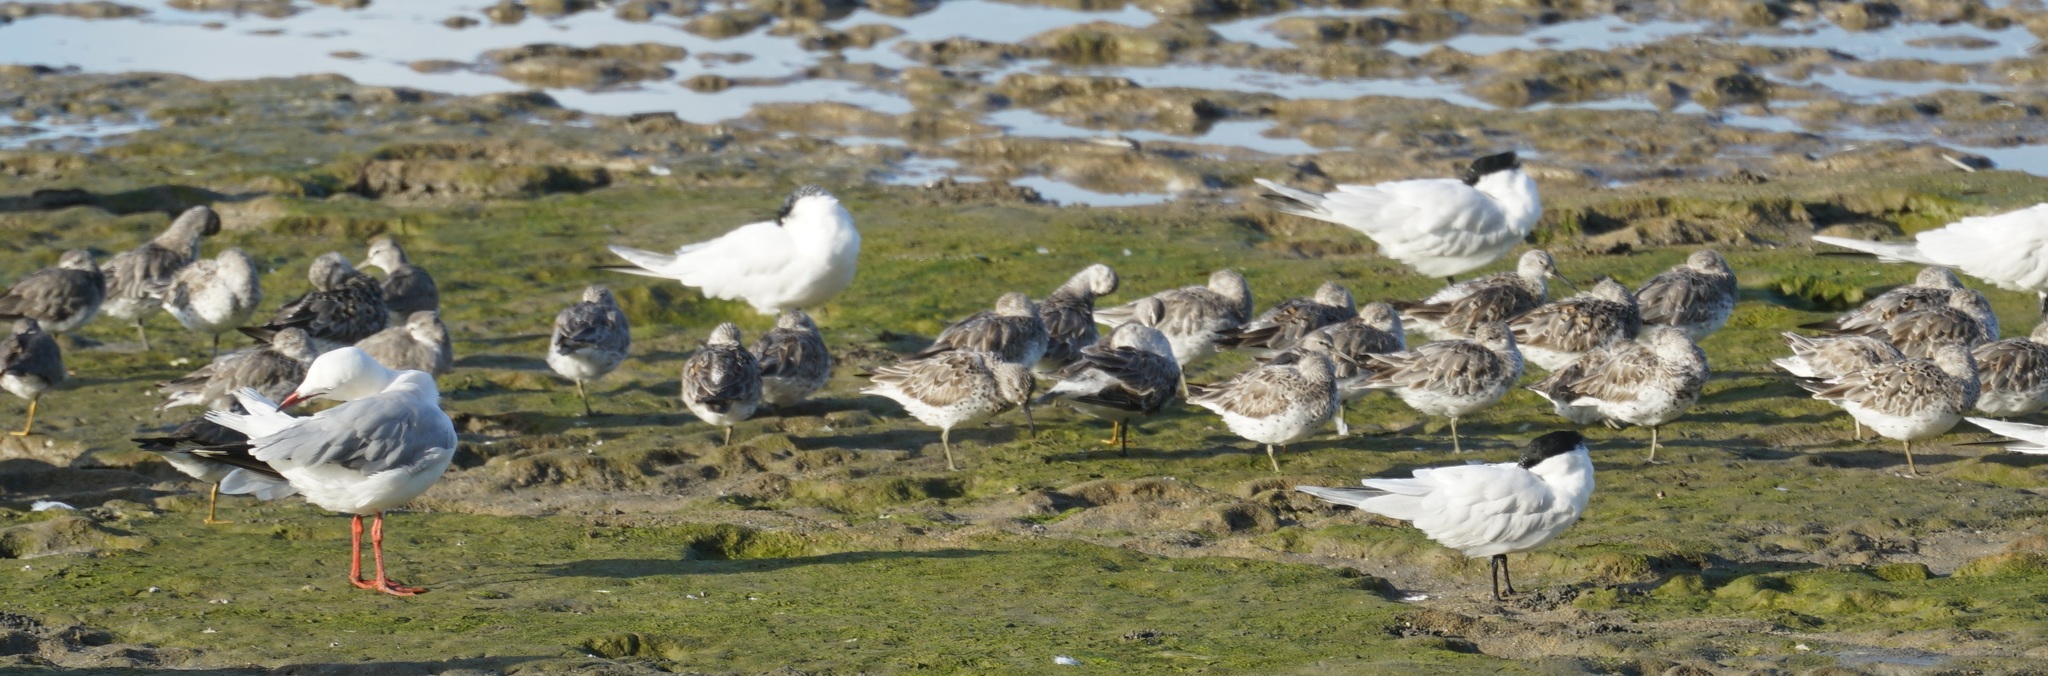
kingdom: Animalia
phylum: Chordata
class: Aves
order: Charadriiformes
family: Scolopacidae
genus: Calidris
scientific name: Calidris tenuirostris
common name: Great knot
